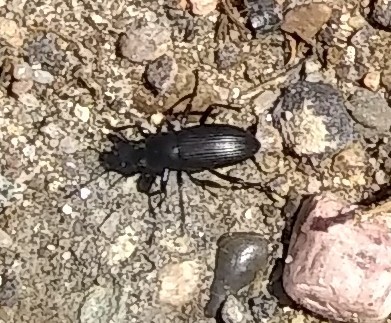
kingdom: Animalia
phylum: Arthropoda
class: Insecta
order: Coleoptera
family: Tenebrionidae
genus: Eleodes
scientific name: Eleodes carbonaria
